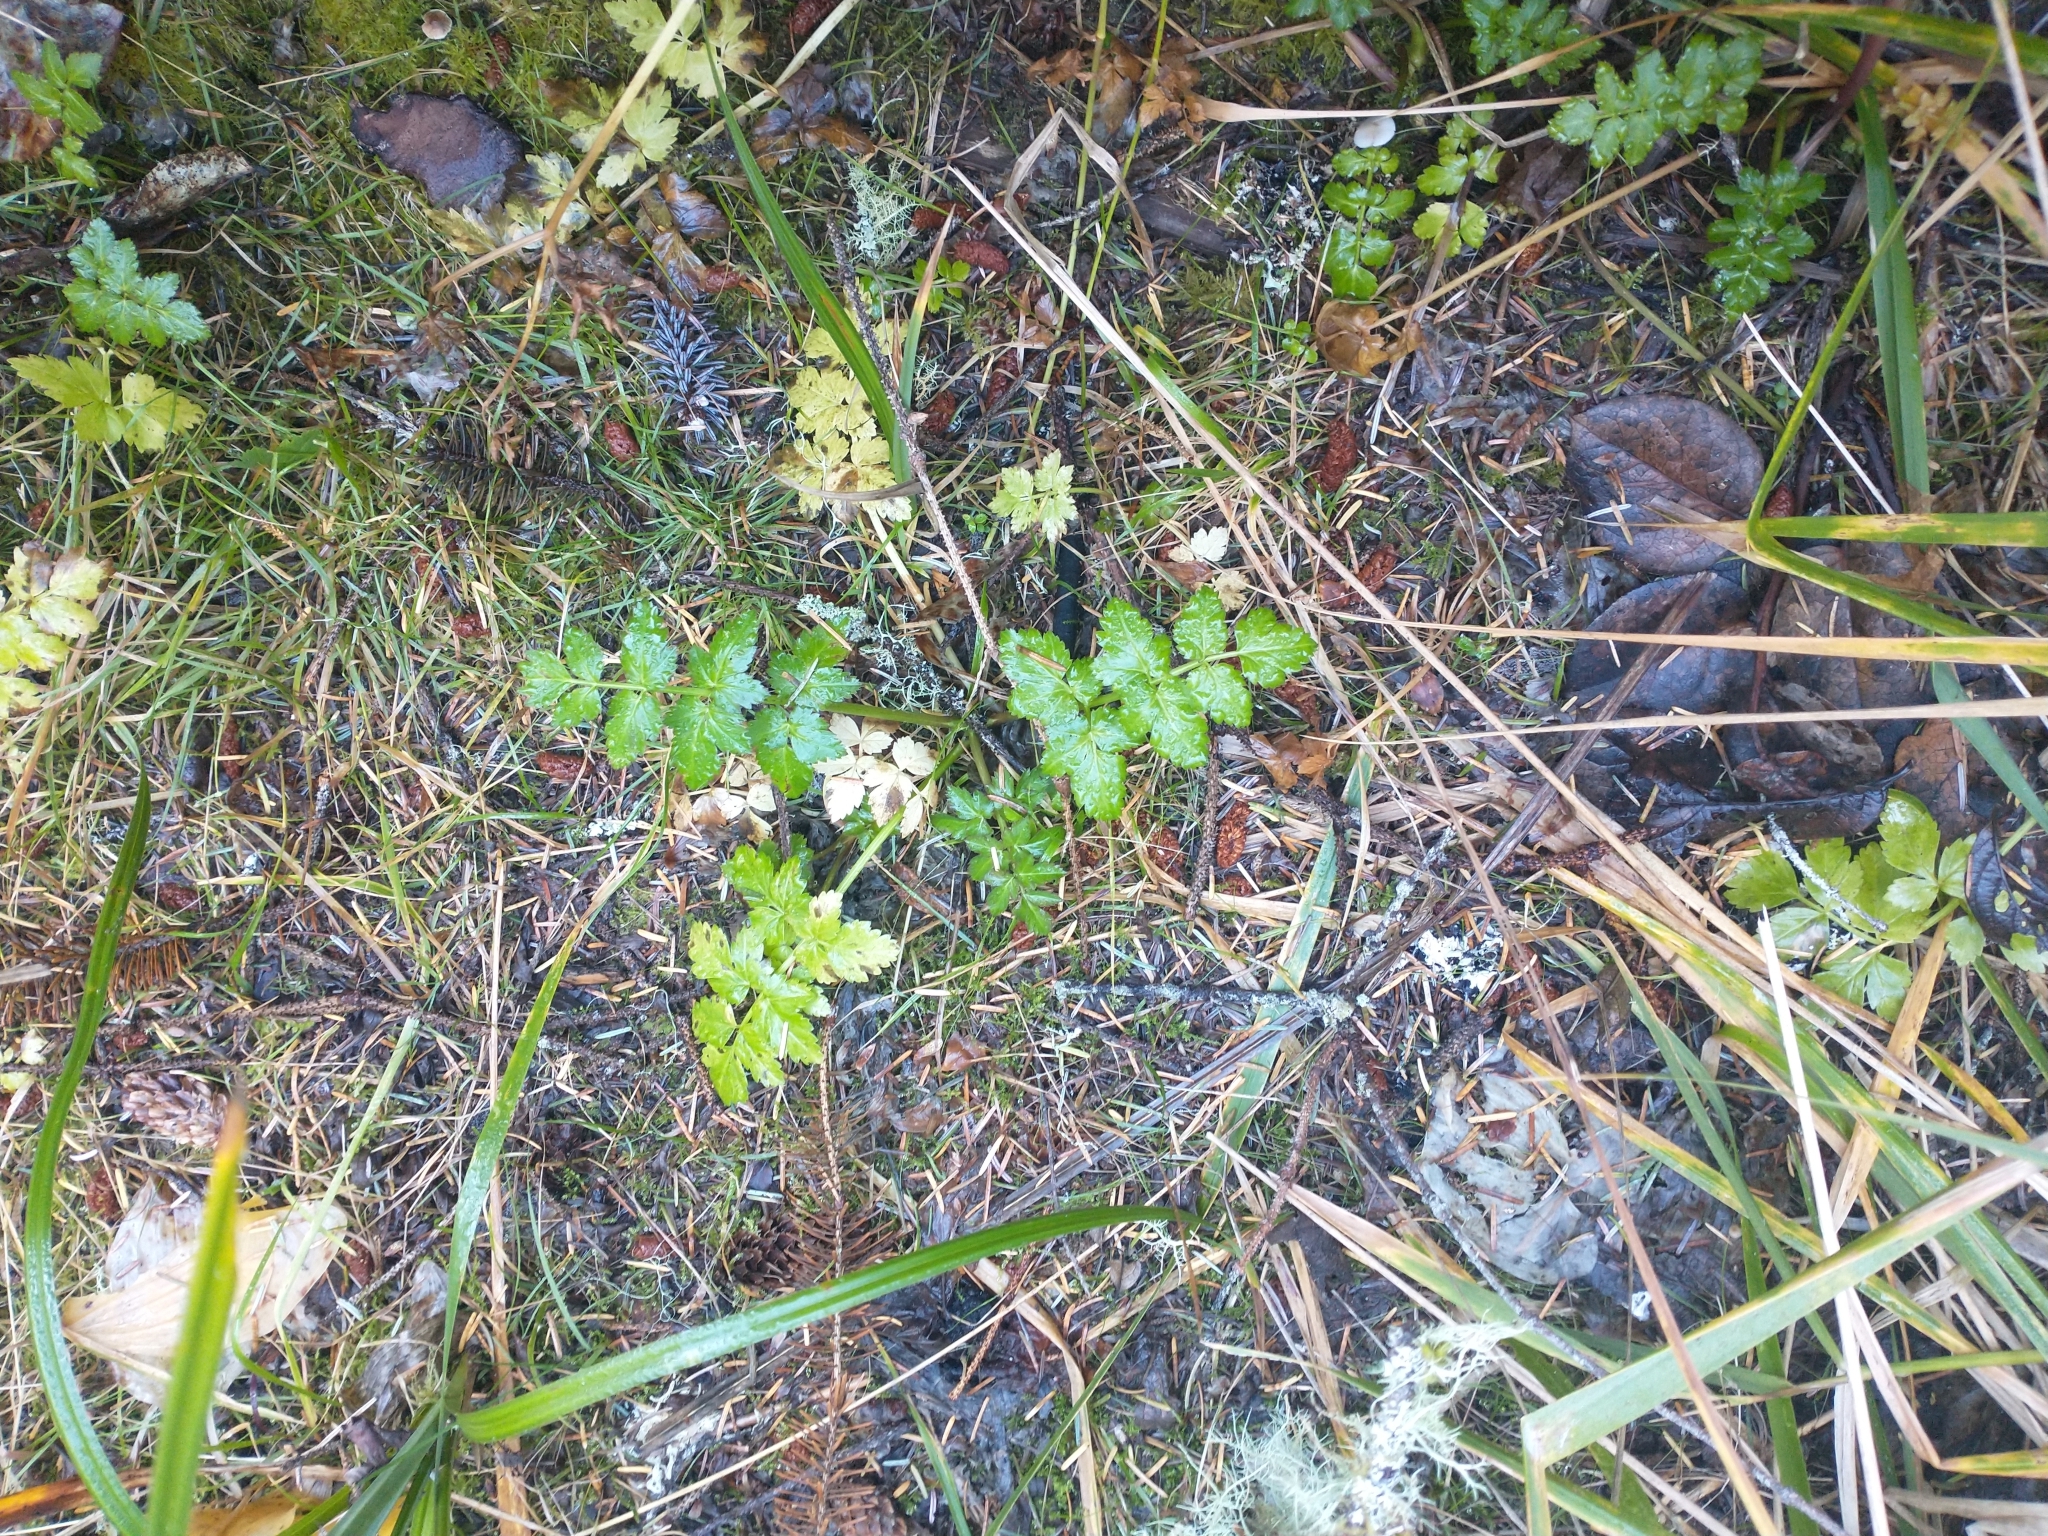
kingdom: Plantae
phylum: Tracheophyta
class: Magnoliopsida
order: Apiales
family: Apiaceae
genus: Oenanthe
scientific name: Oenanthe sarmentosa
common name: American water-parsley
